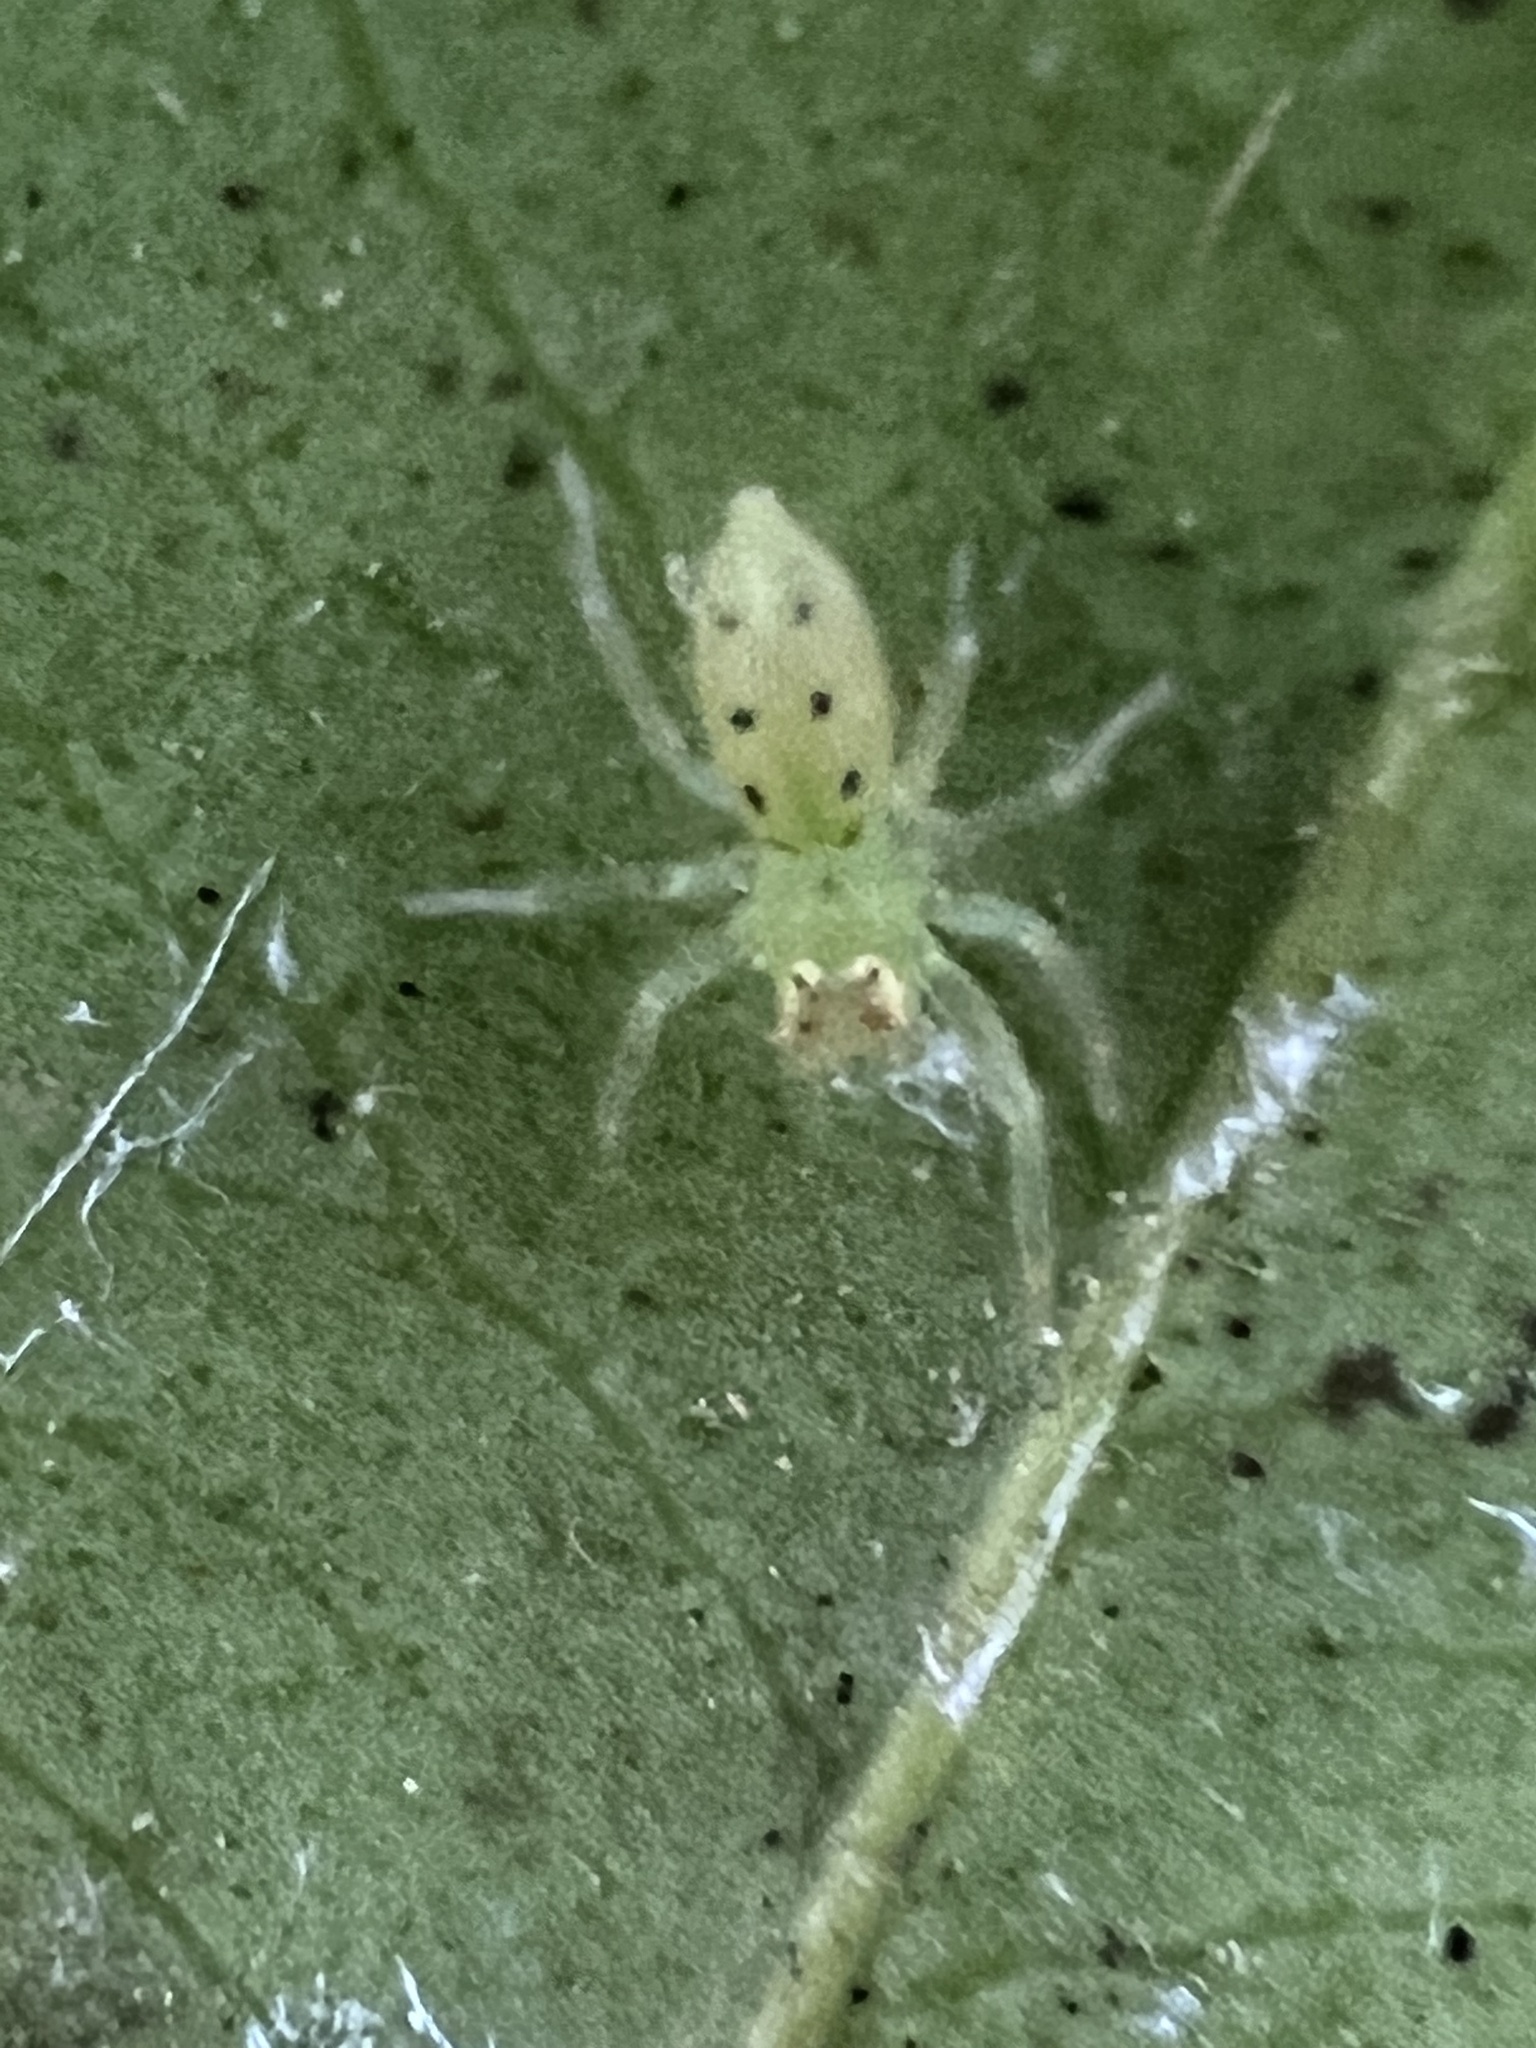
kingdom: Animalia
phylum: Arthropoda
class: Arachnida
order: Araneae
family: Salticidae
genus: Lyssomanes
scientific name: Lyssomanes viridis
